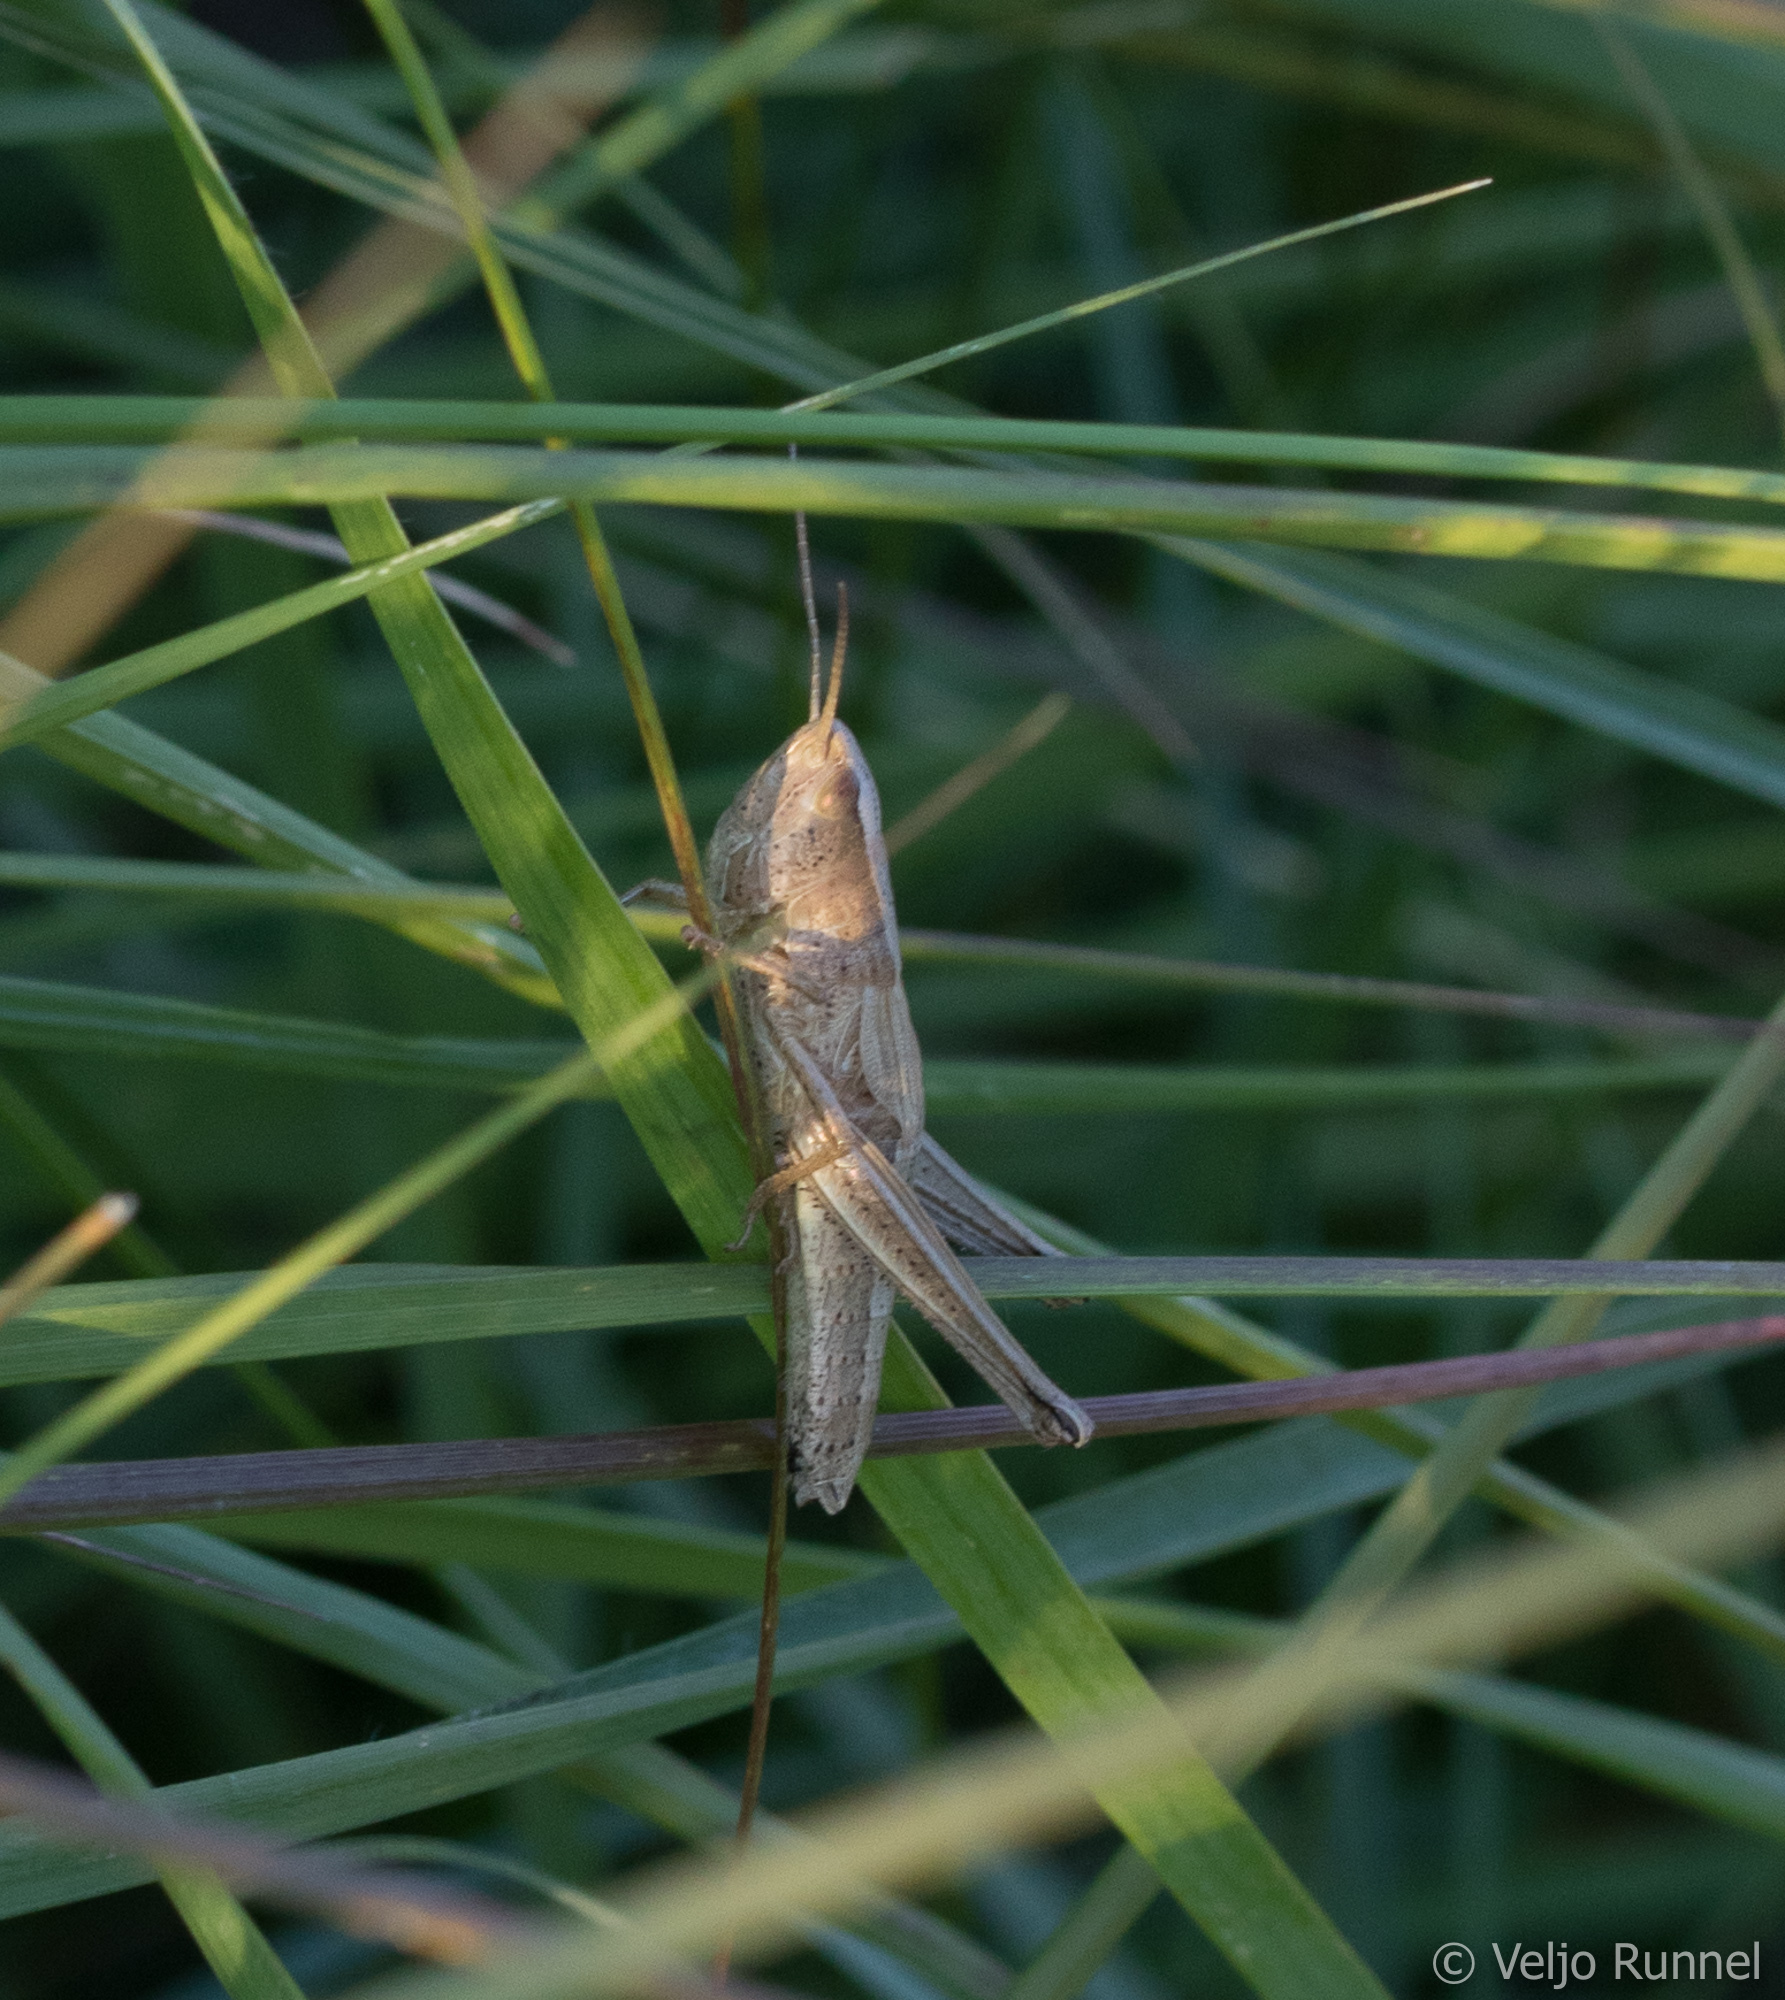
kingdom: Animalia
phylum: Arthropoda
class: Insecta
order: Orthoptera
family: Acrididae
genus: Chrysochraon
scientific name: Chrysochraon dispar
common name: Large gold grasshopper
